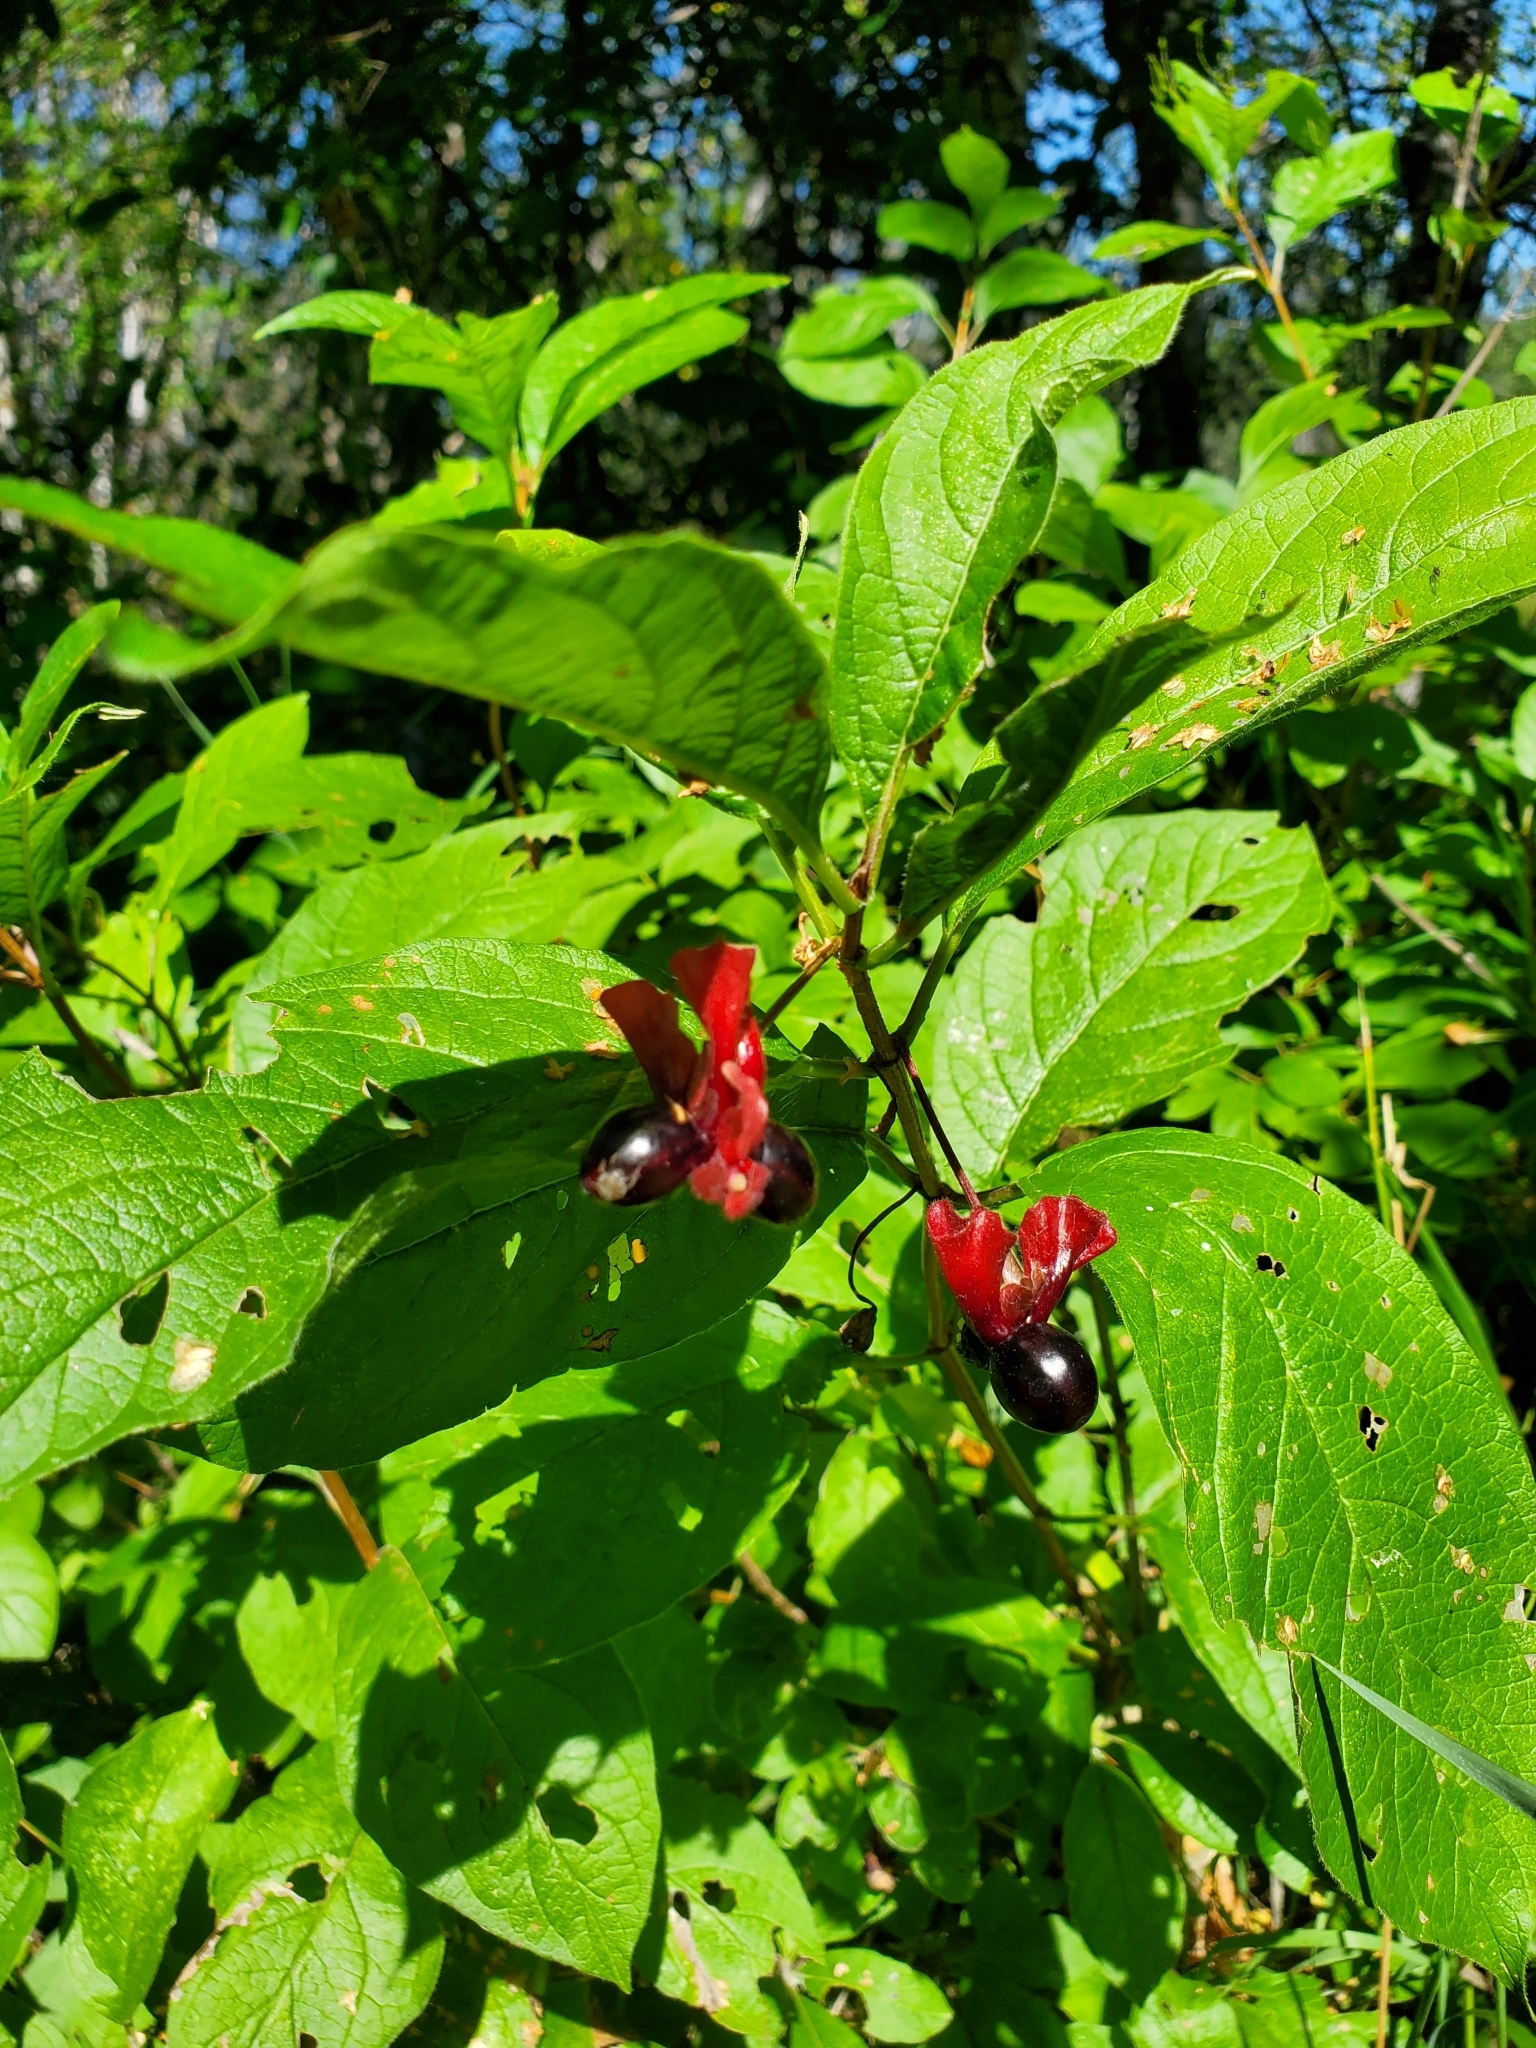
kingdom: Plantae
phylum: Tracheophyta
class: Magnoliopsida
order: Dipsacales
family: Caprifoliaceae
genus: Lonicera
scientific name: Lonicera involucrata
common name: Californian honeysuckle
